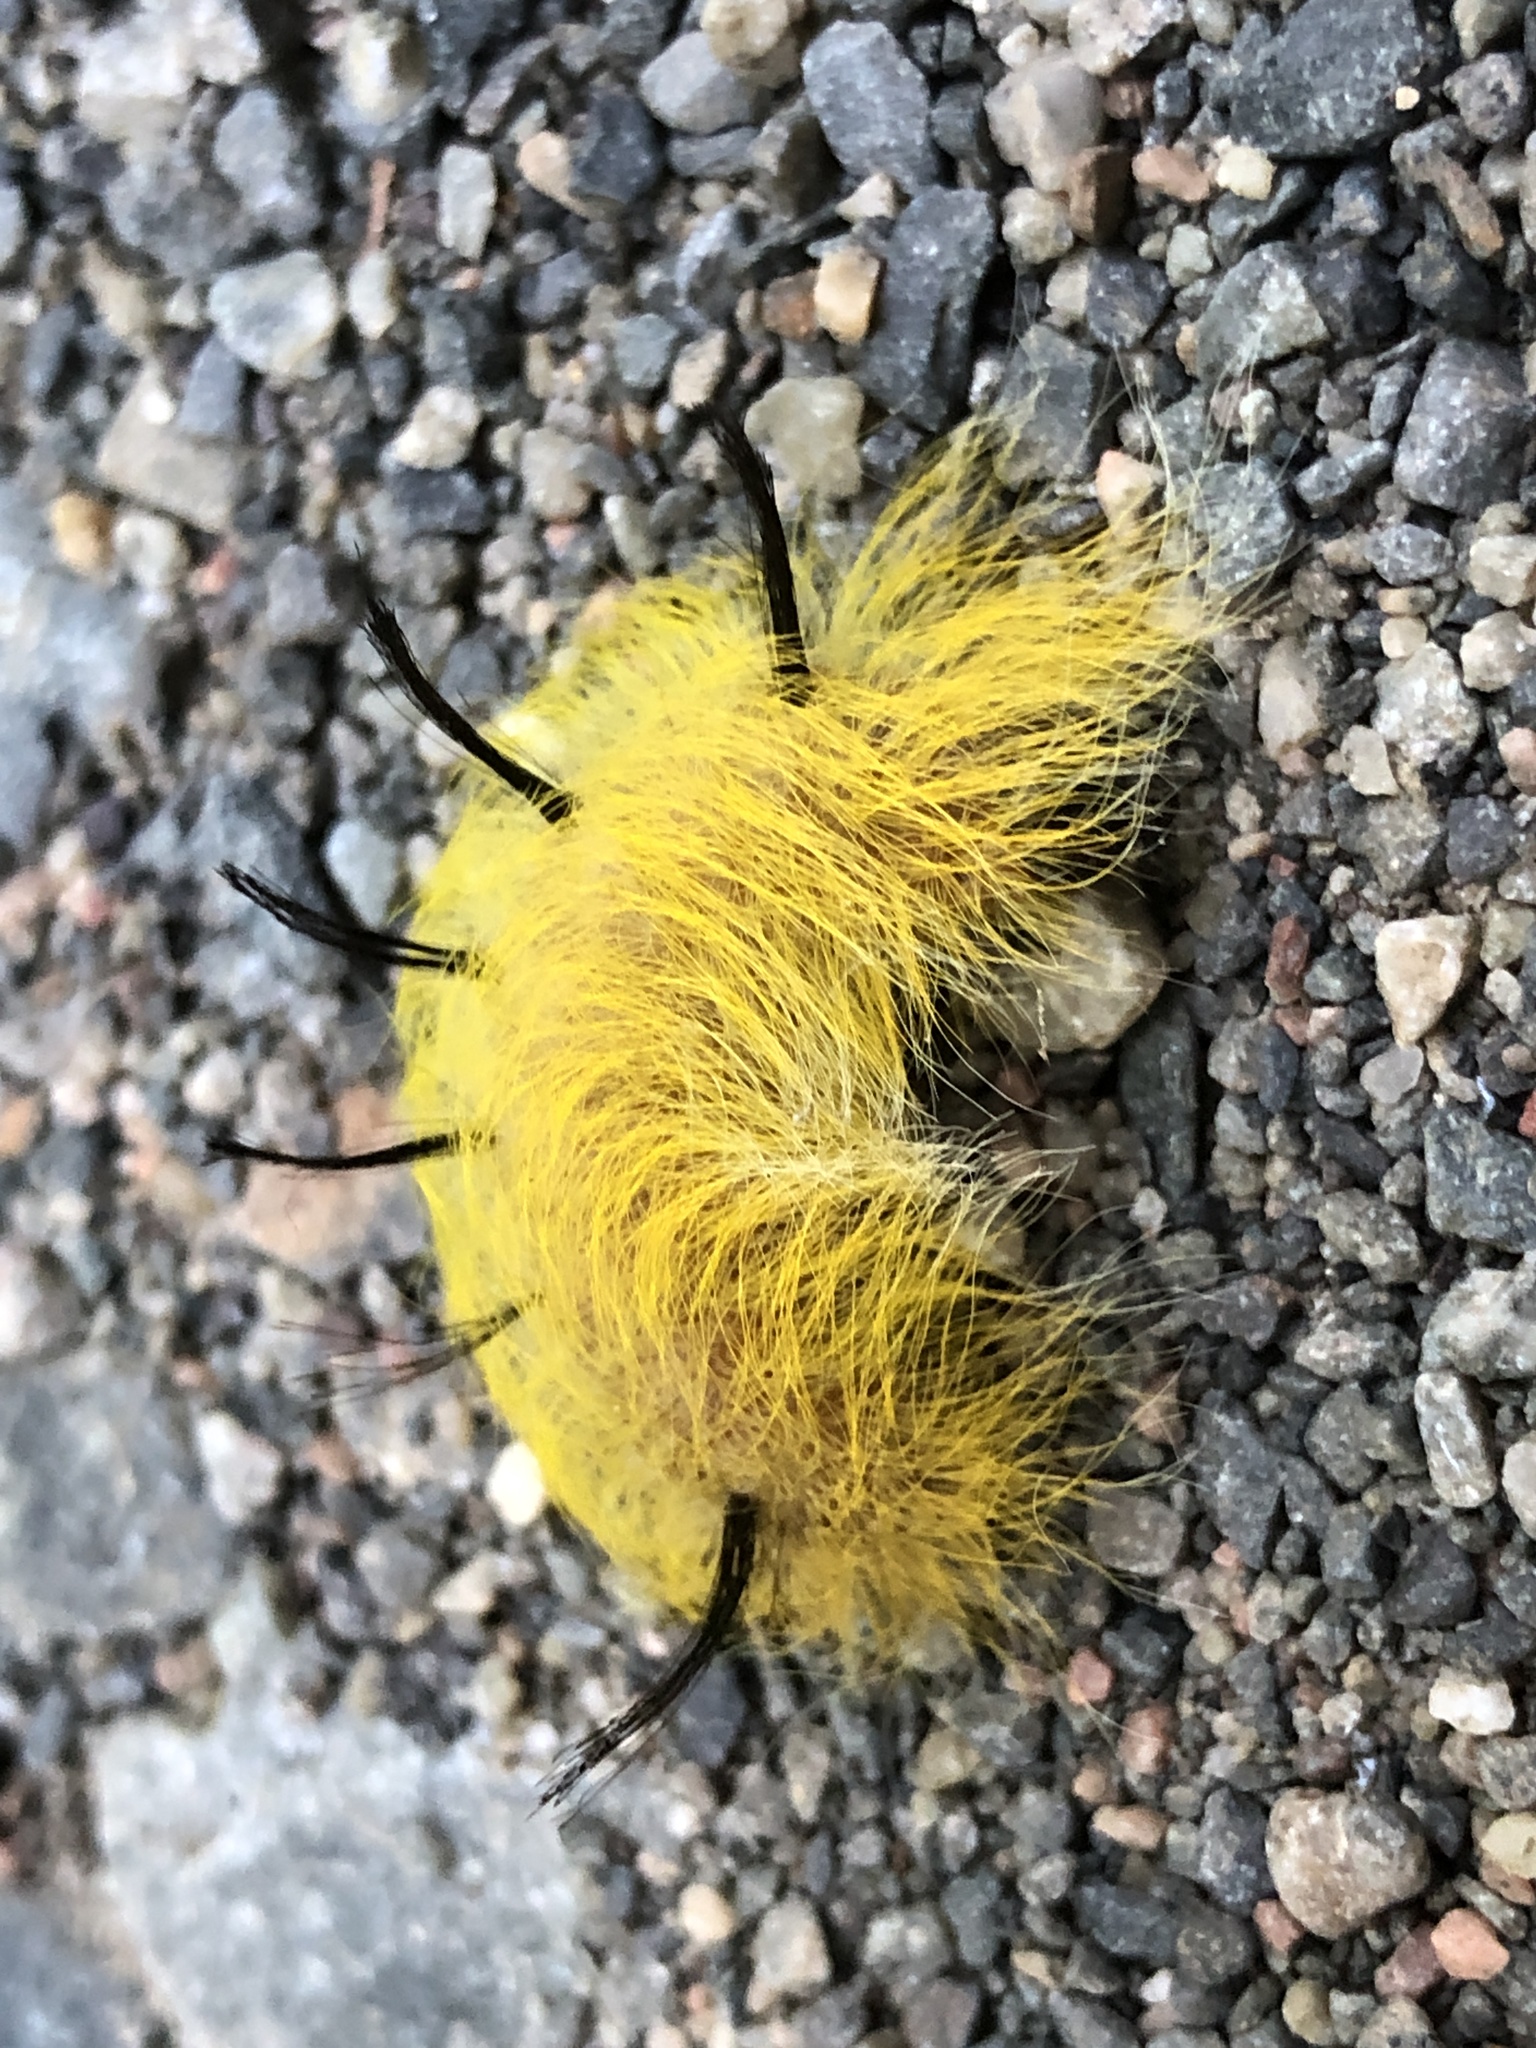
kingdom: Animalia
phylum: Arthropoda
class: Insecta
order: Lepidoptera
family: Noctuidae
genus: Acronicta
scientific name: Acronicta lepusculina
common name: Cottonwood dagger
